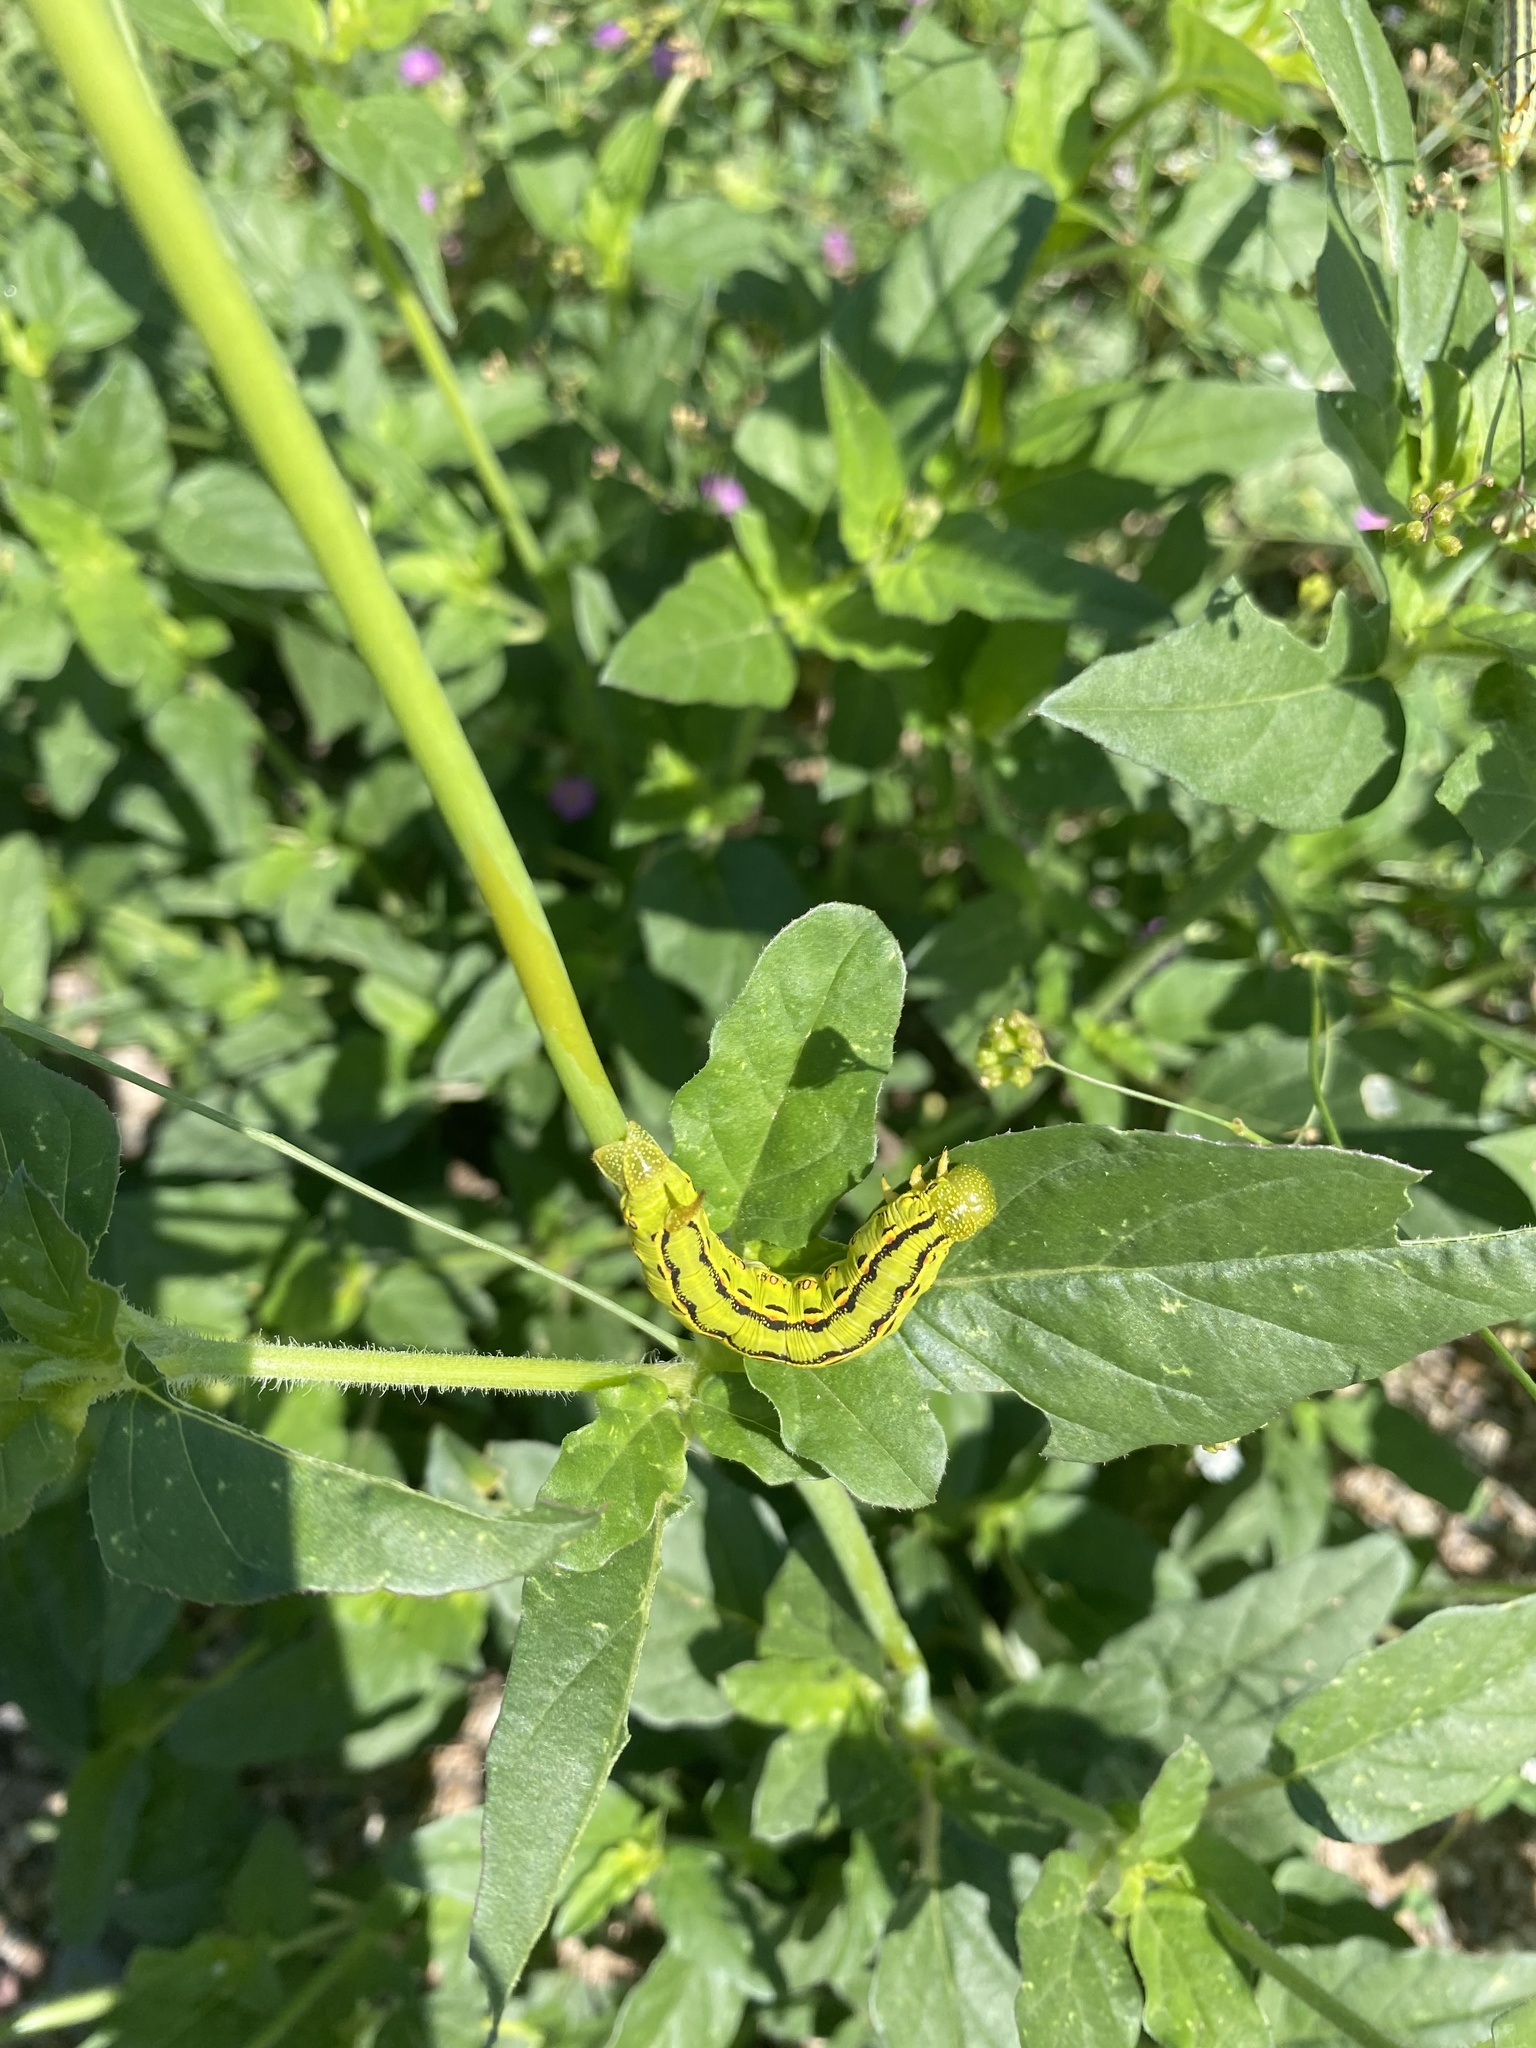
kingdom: Animalia
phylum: Arthropoda
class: Insecta
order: Lepidoptera
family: Sphingidae
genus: Hyles
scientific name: Hyles lineata
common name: White-lined sphinx
